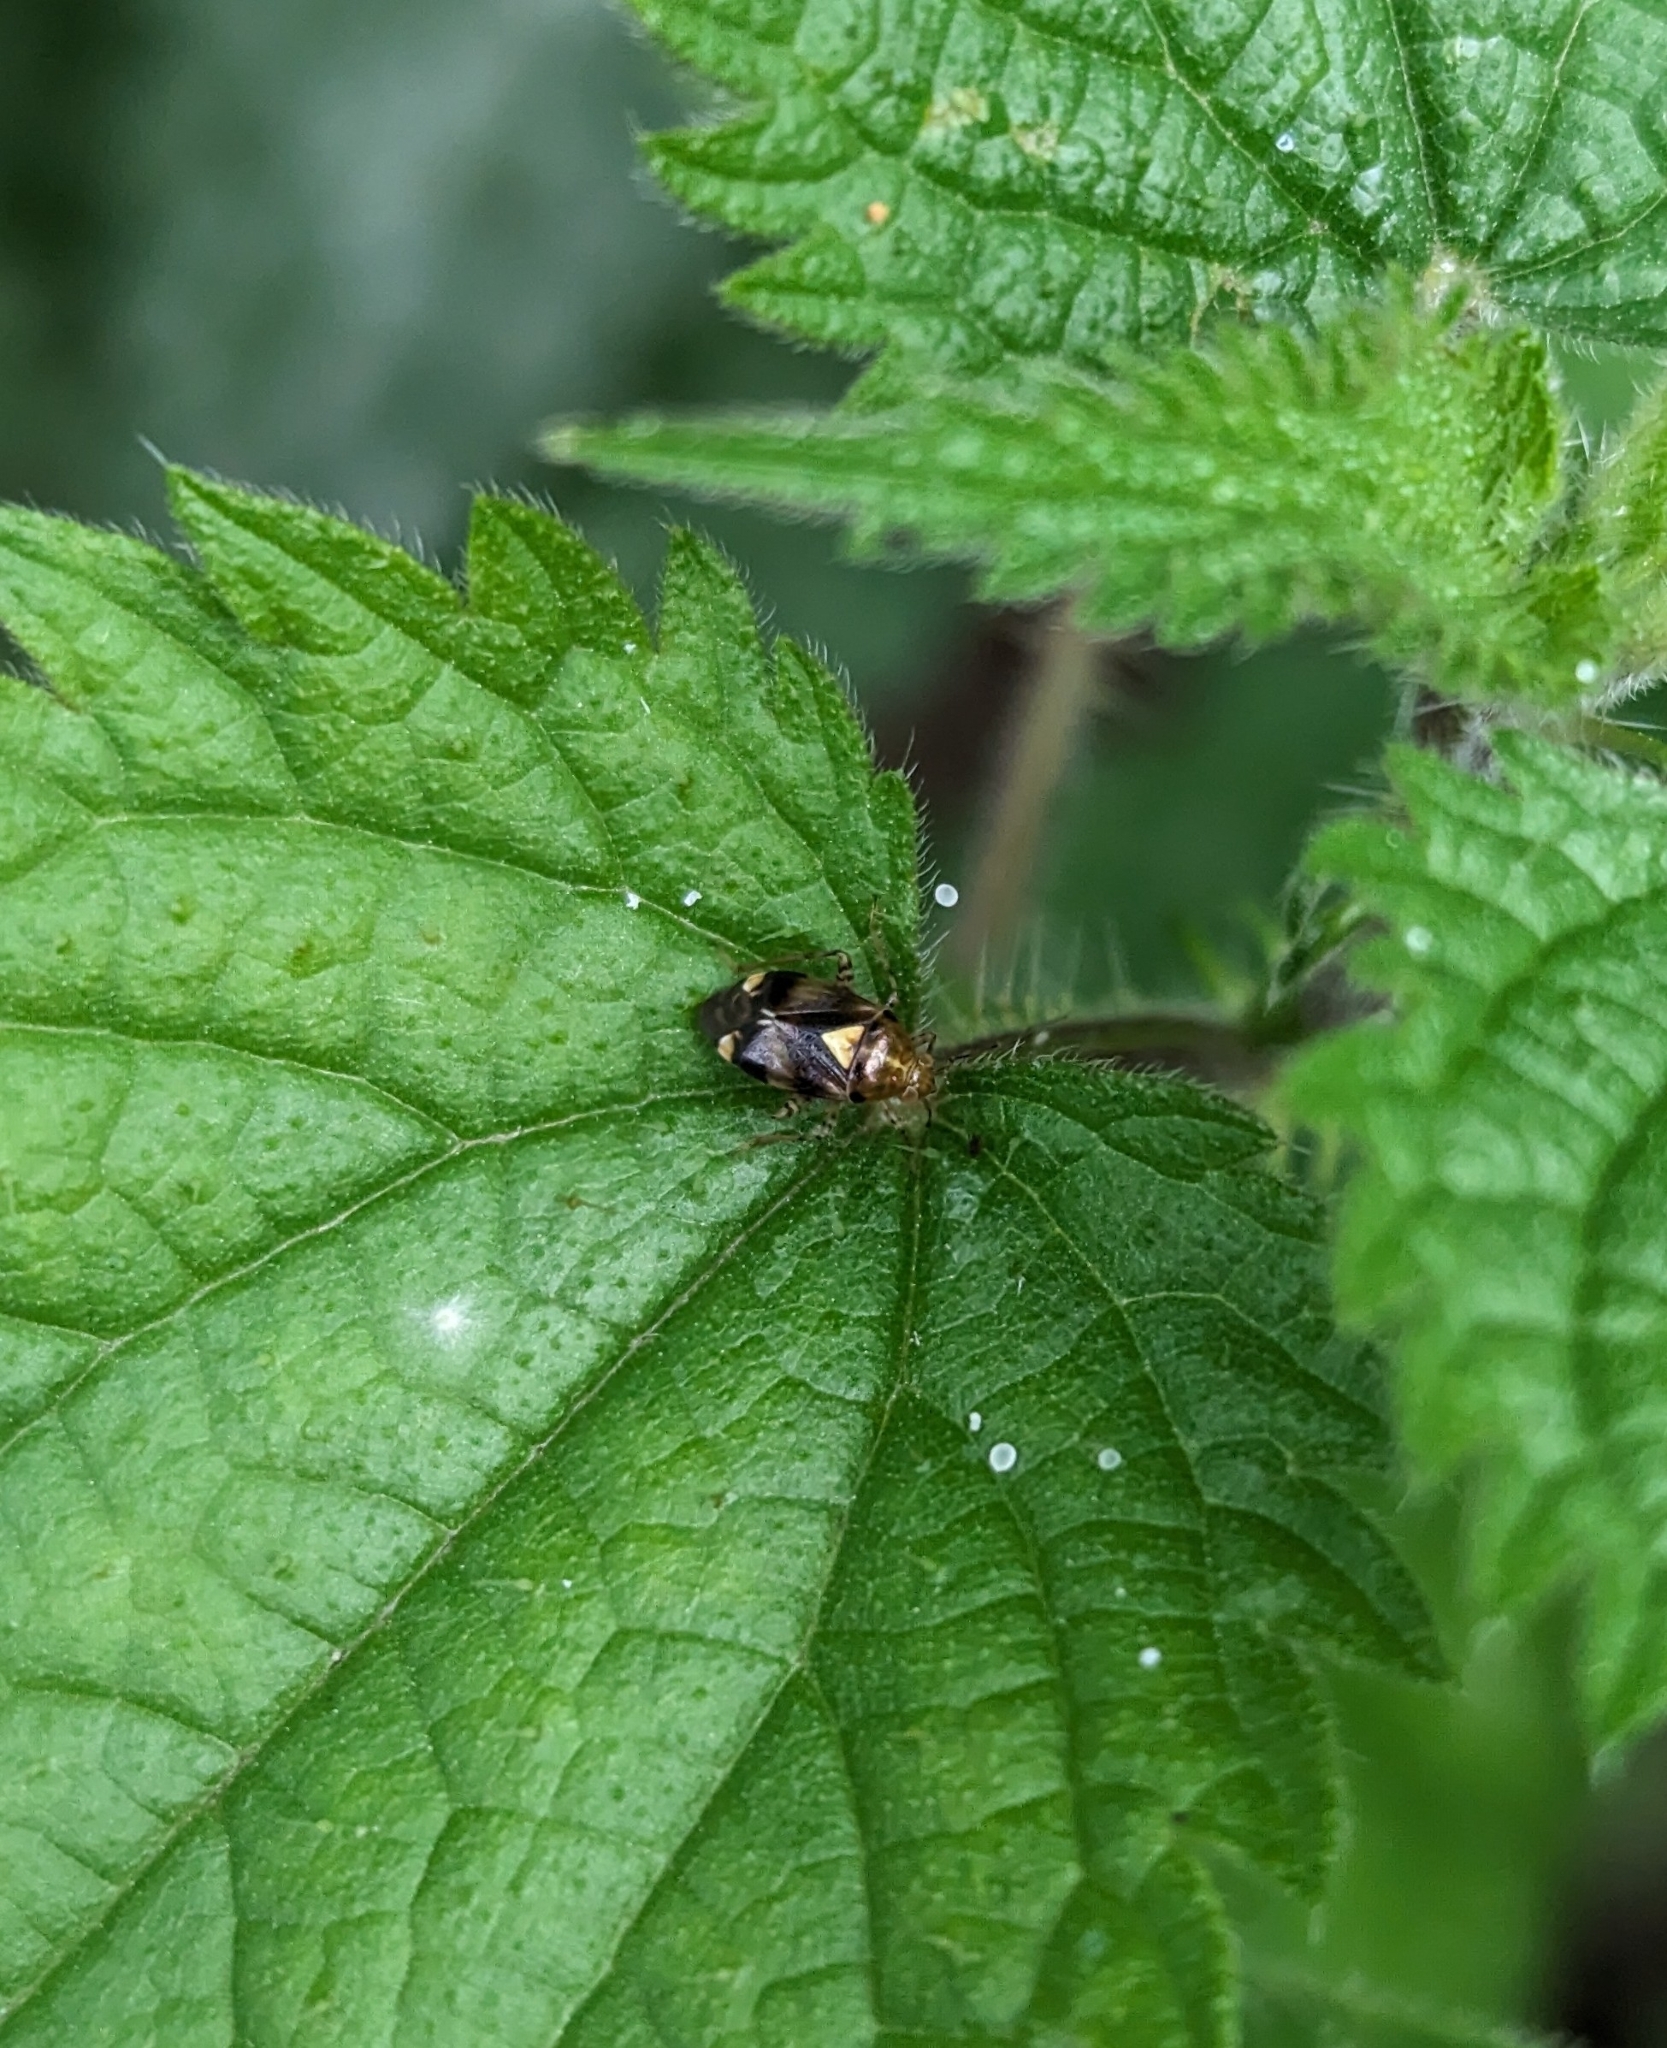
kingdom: Animalia
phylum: Arthropoda
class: Insecta
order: Hemiptera
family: Miridae
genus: Liocoris
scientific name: Liocoris tripustulatus
